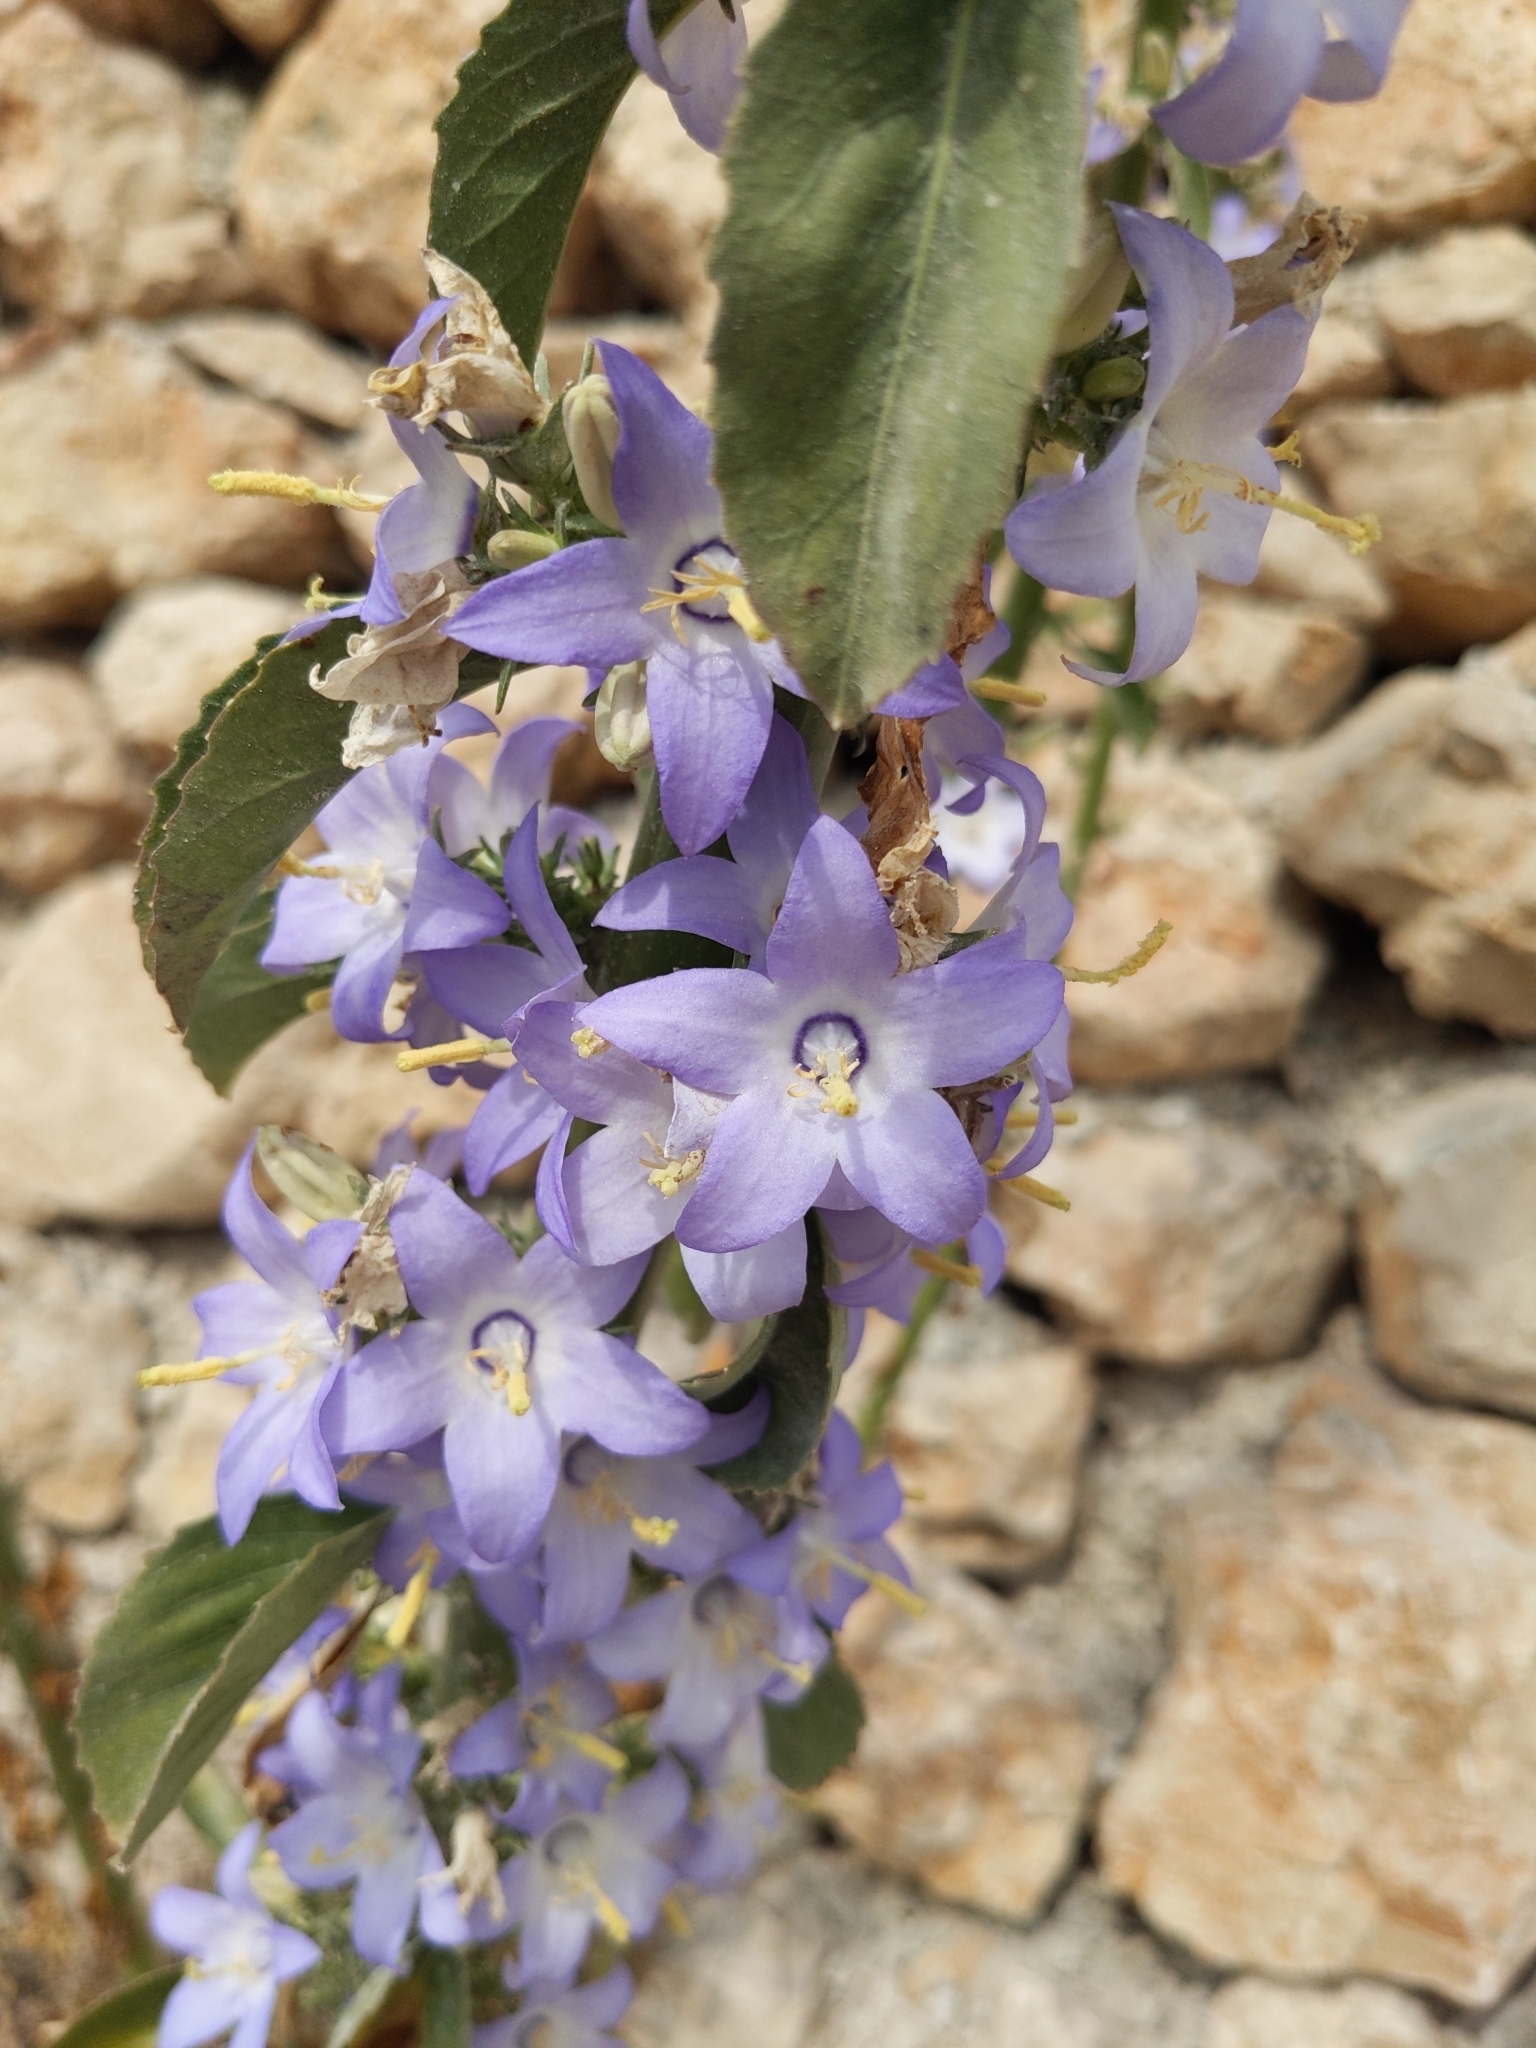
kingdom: Plantae
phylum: Tracheophyta
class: Magnoliopsida
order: Asterales
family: Campanulaceae
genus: Campanula
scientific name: Campanula pyramidalis
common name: Chimney bellflower
